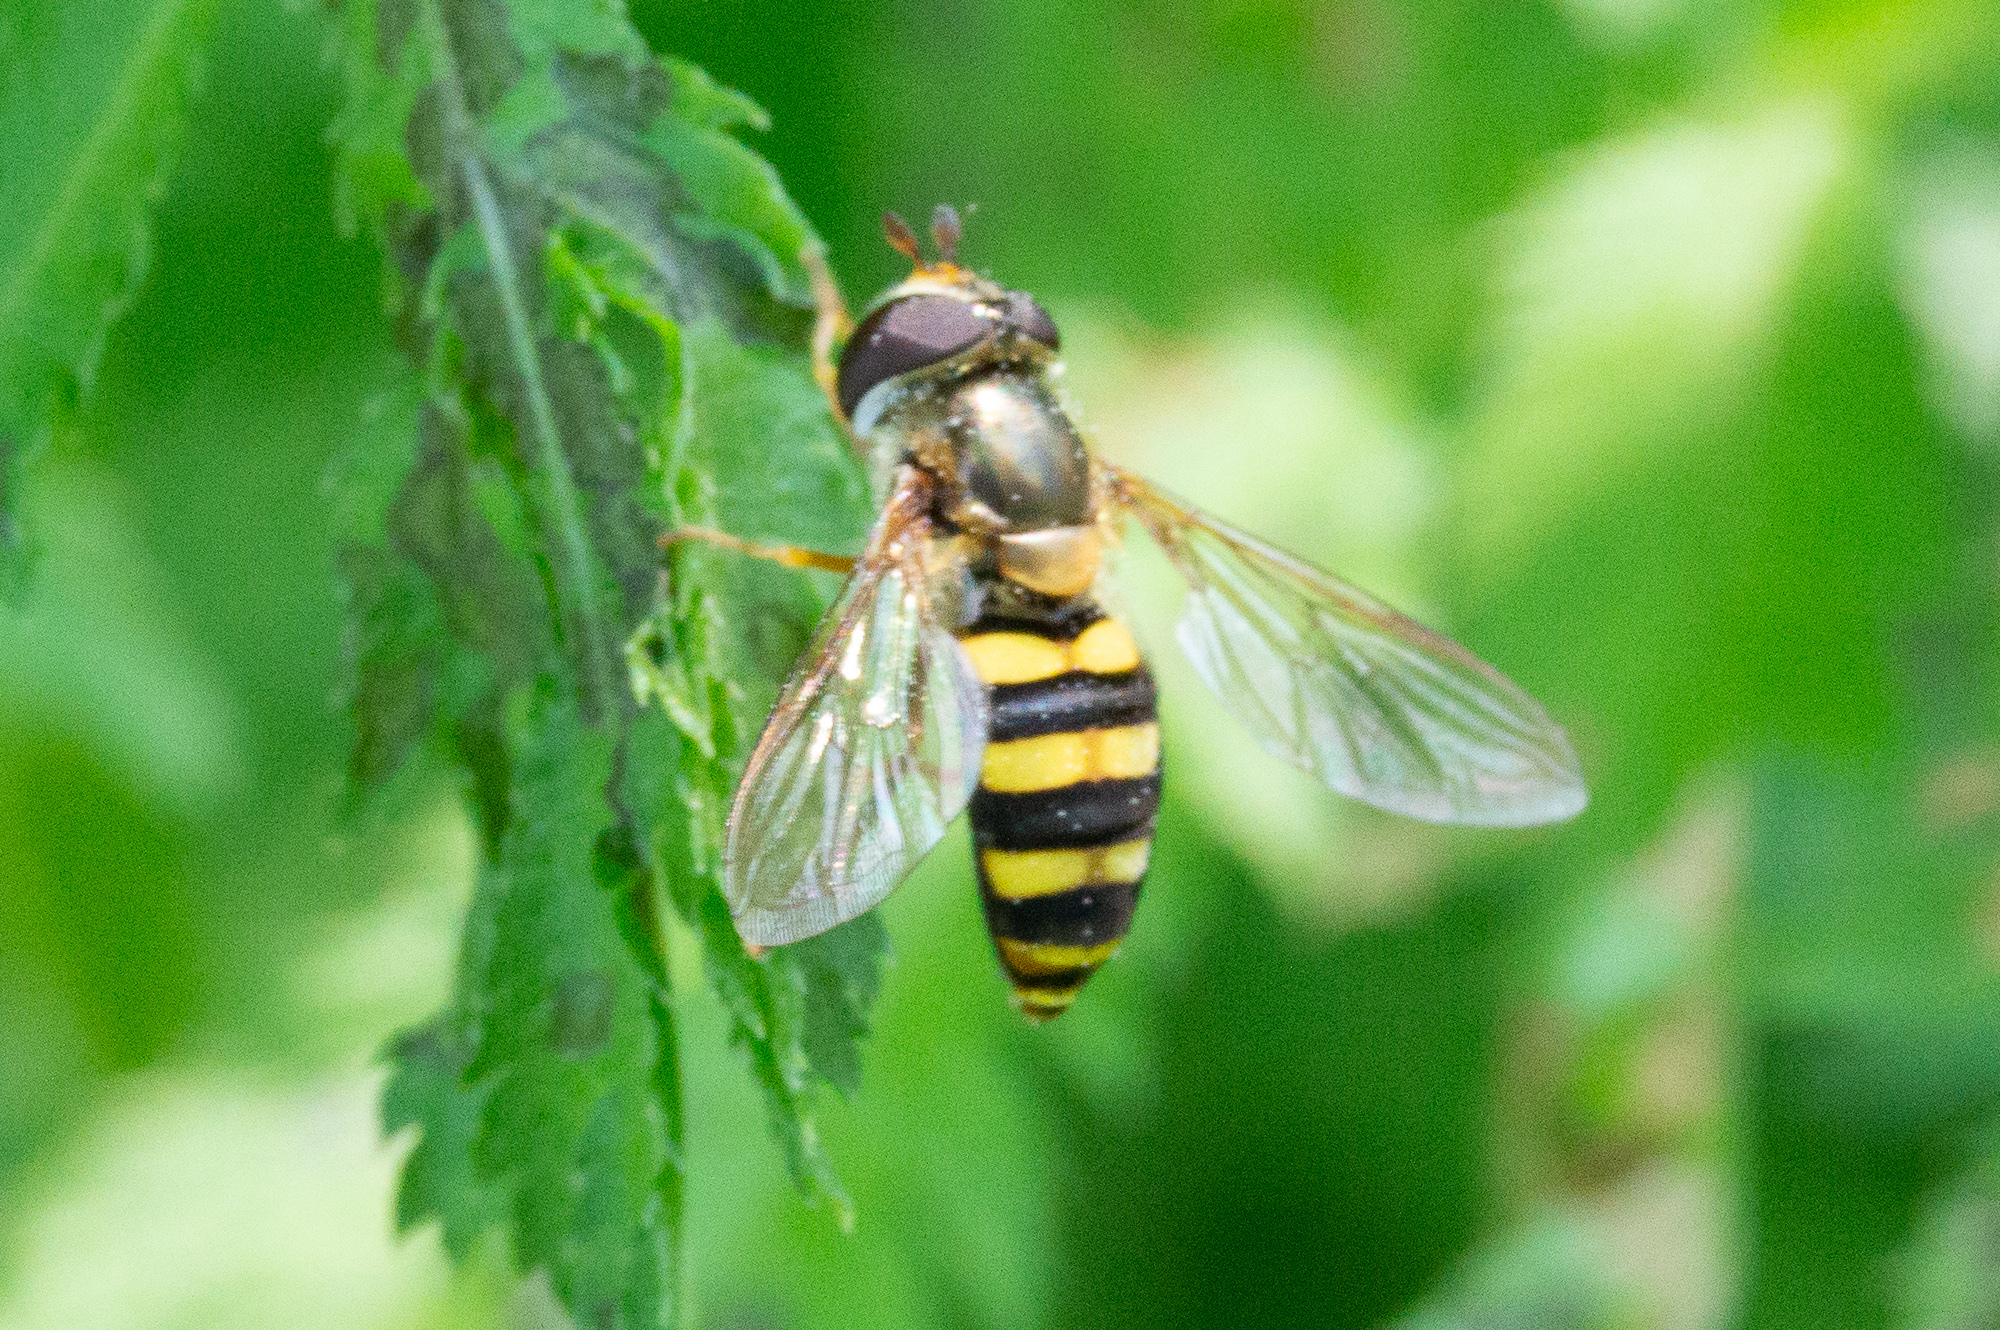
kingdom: Animalia
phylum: Arthropoda
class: Insecta
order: Diptera
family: Syrphidae
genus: Eupeodes
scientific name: Eupeodes
